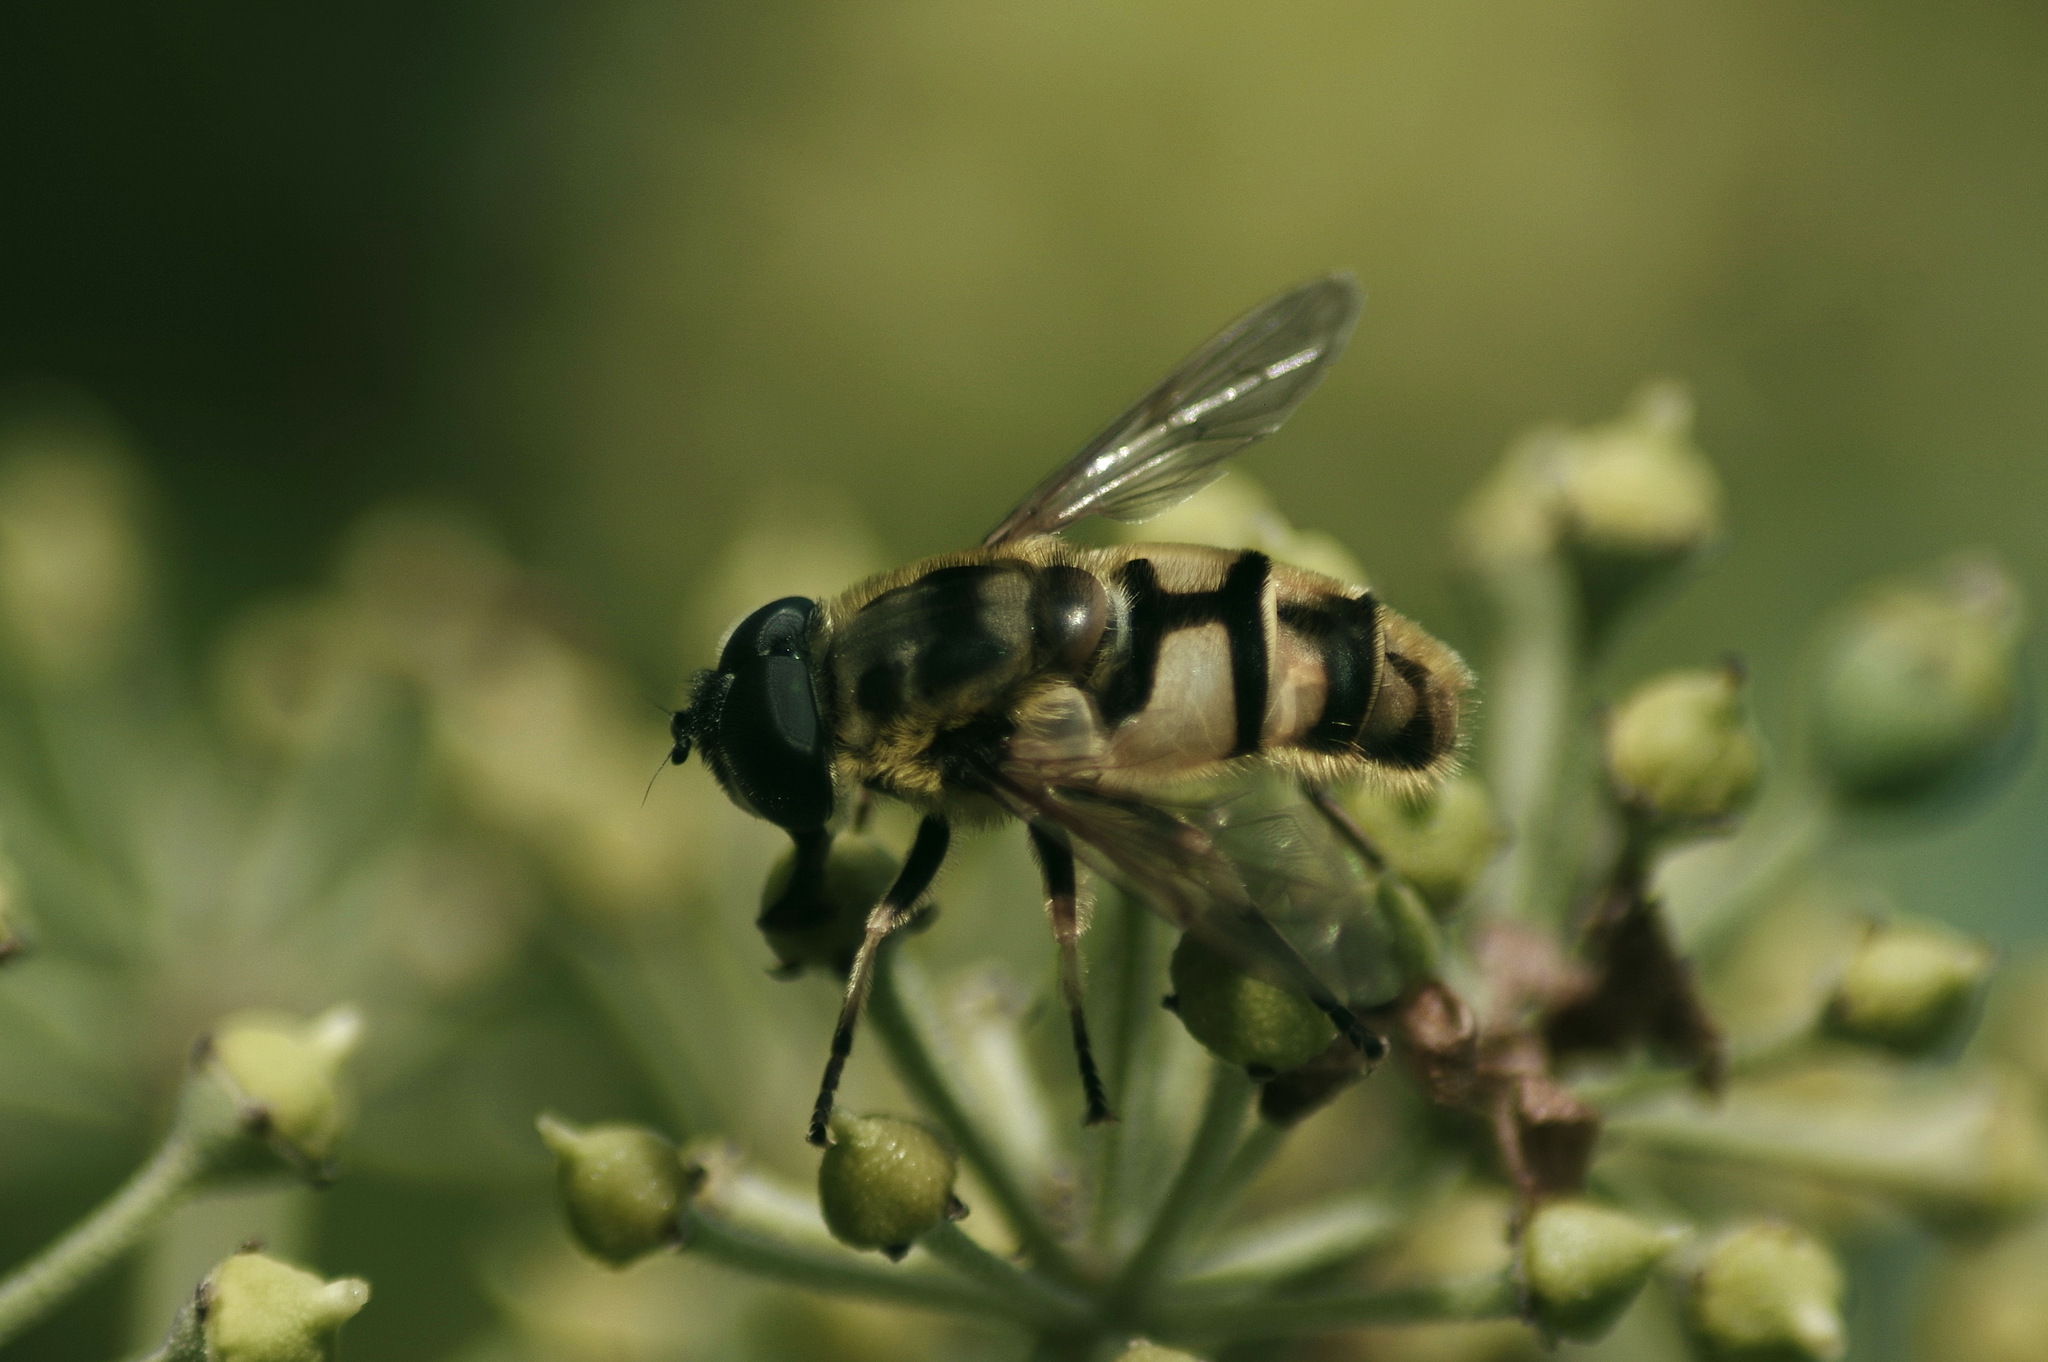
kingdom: Animalia
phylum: Arthropoda
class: Insecta
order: Diptera
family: Syrphidae
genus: Myathropa
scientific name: Myathropa florea
